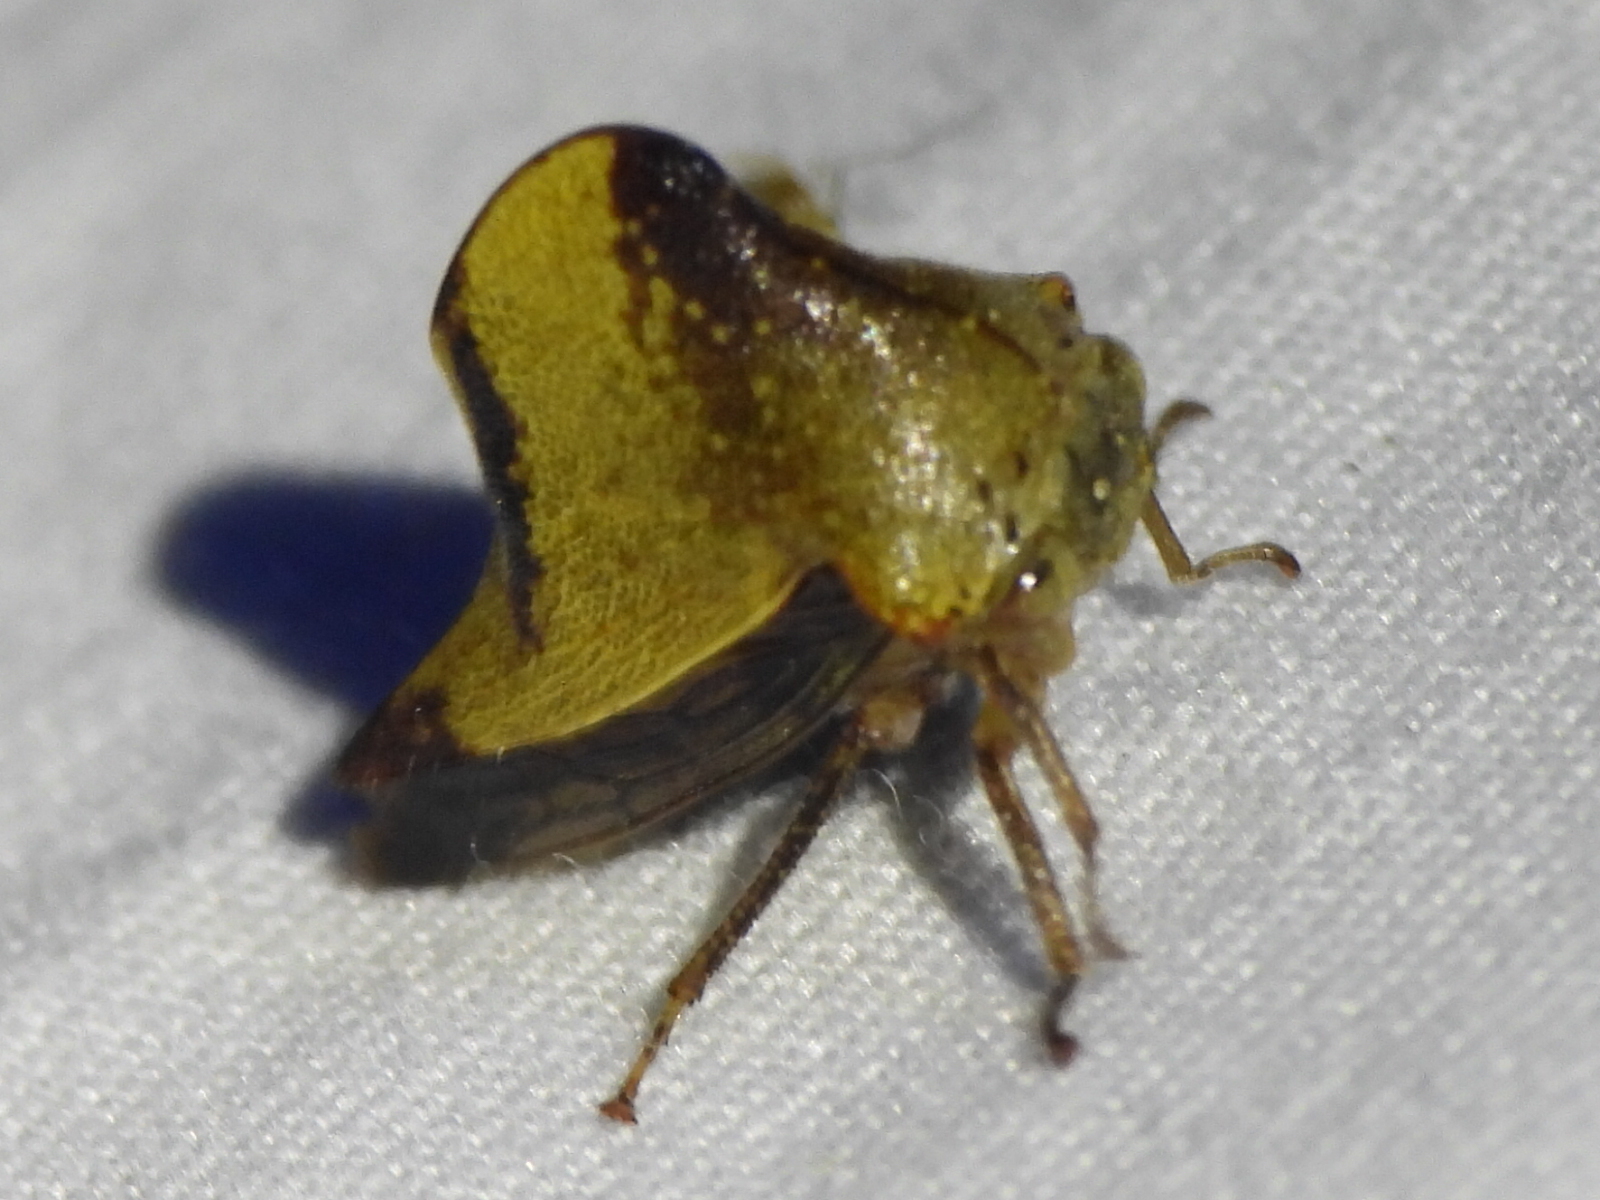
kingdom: Animalia
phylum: Arthropoda
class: Insecta
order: Hemiptera
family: Membracidae
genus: Helonica
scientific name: Helonica excelsa
